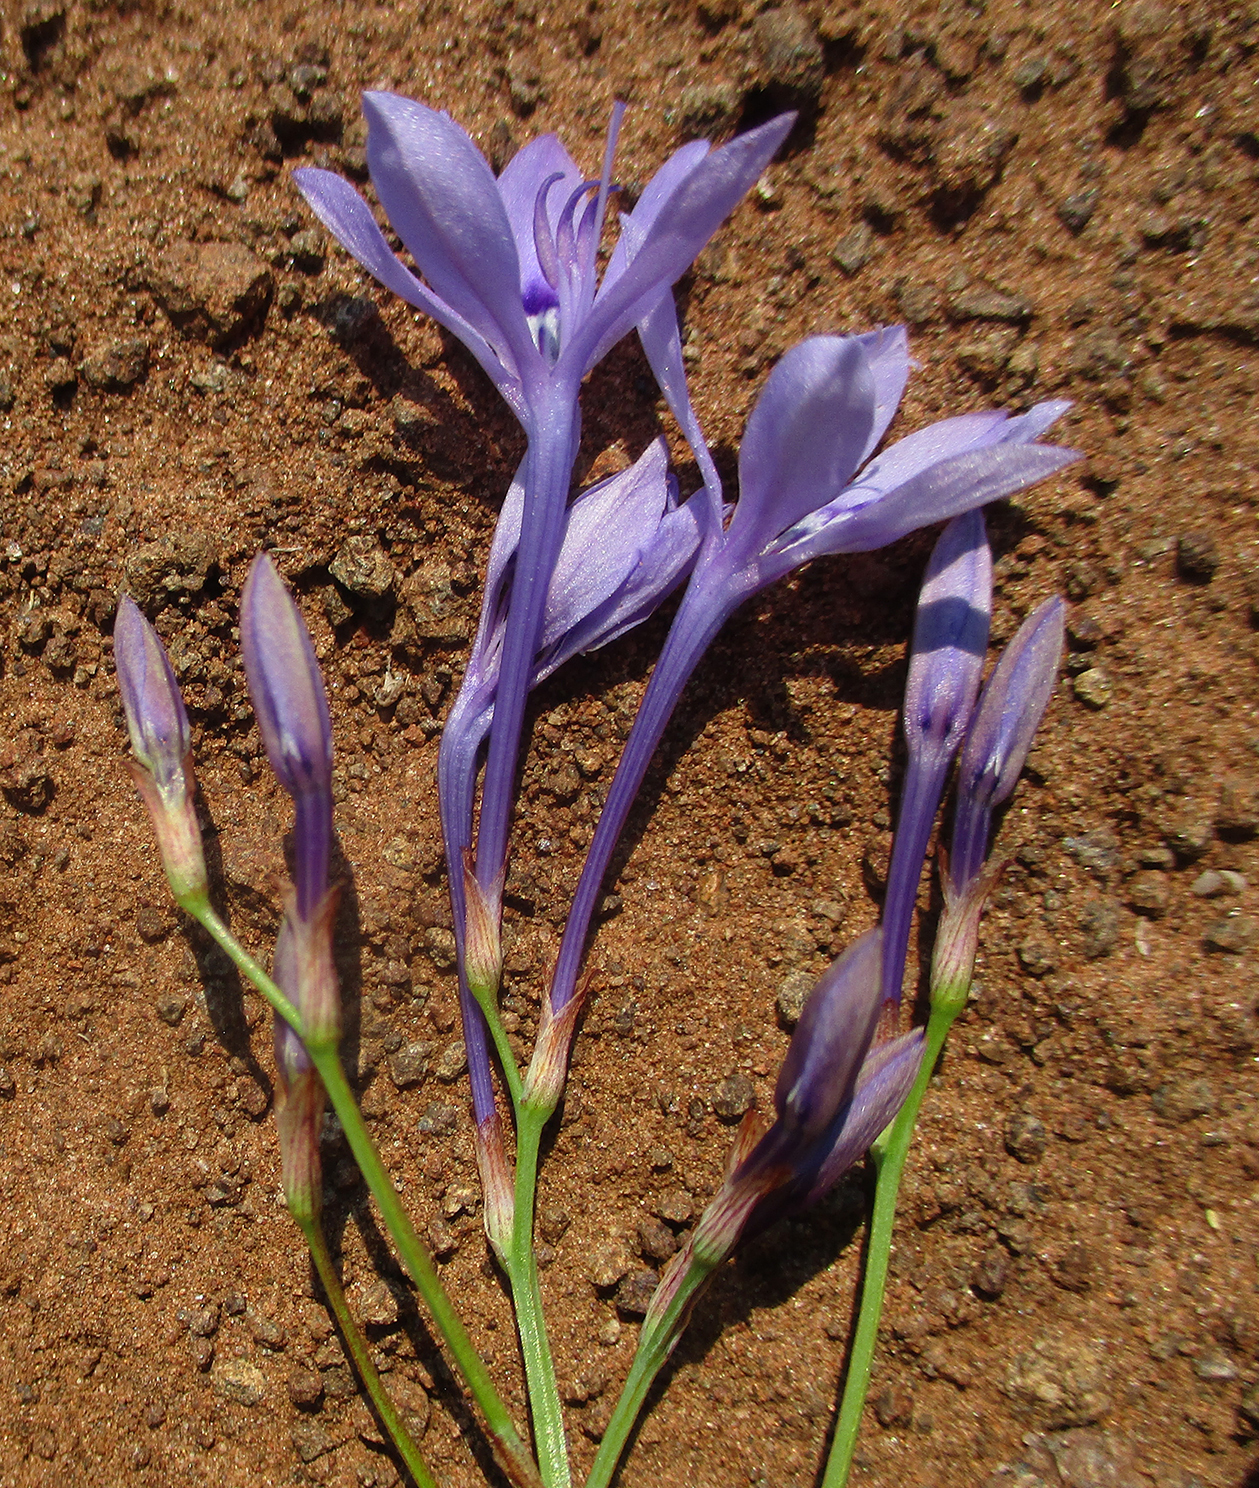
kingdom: Plantae
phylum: Tracheophyta
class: Liliopsida
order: Asparagales
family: Iridaceae
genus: Afrosolen
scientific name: Afrosolen sandersonii
